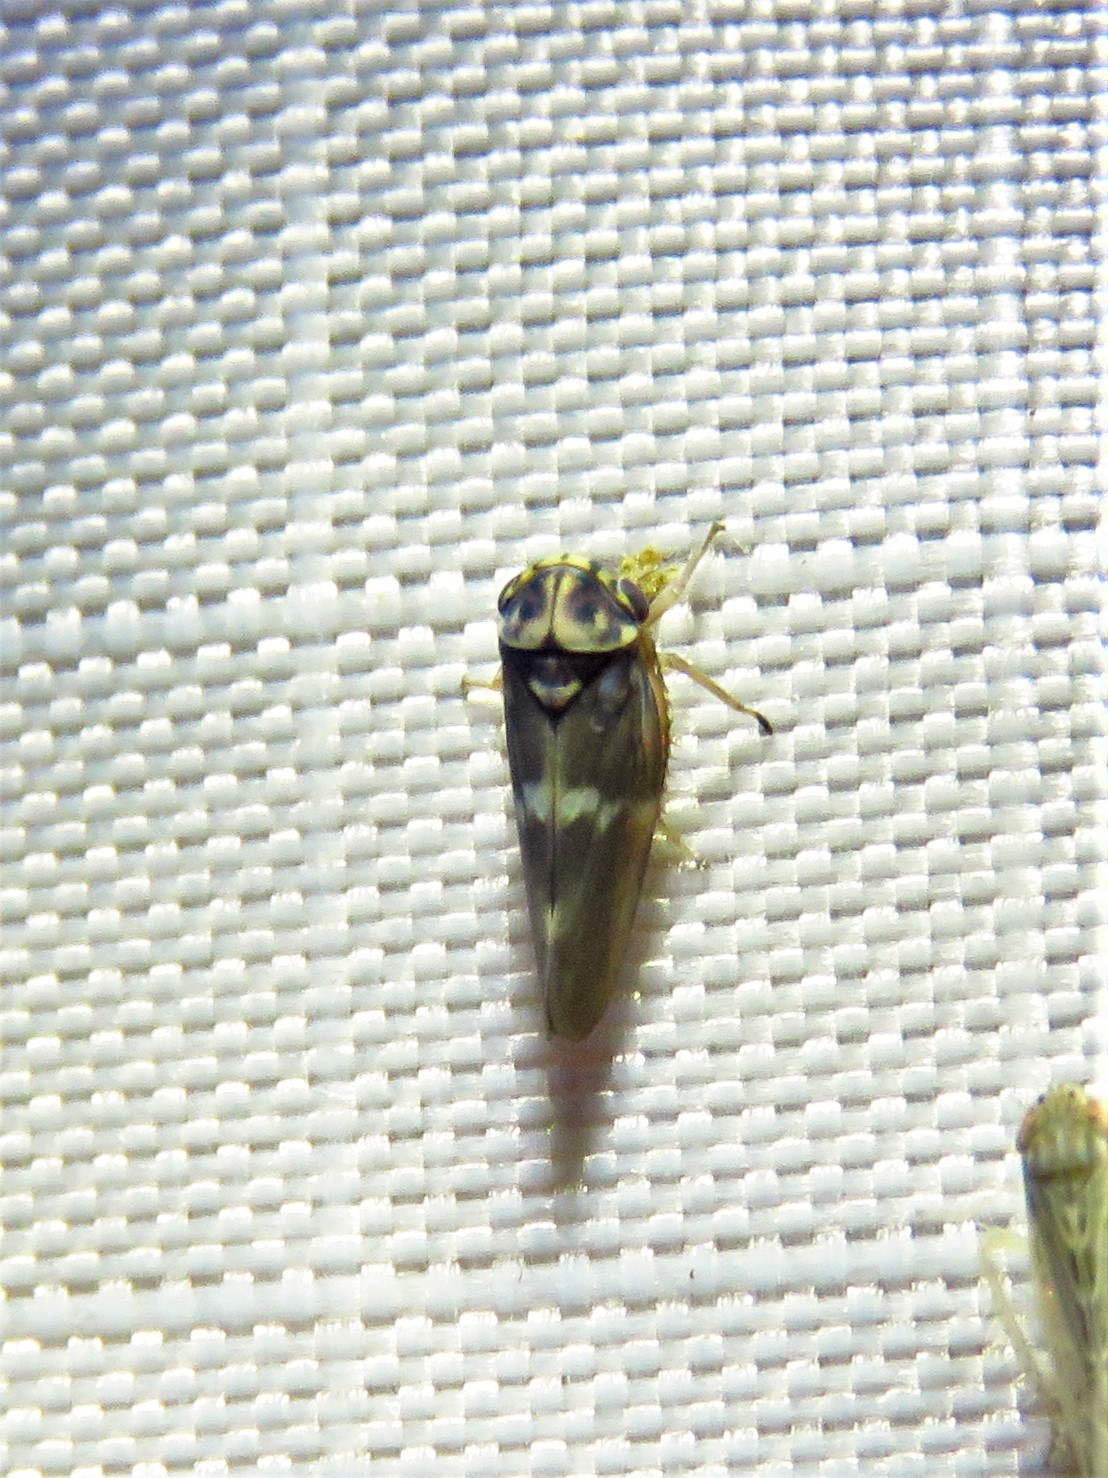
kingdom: Animalia
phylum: Arthropoda
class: Insecta
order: Hemiptera
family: Cicadellidae
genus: Agalliopsis
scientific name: Agalliopsis cervina
